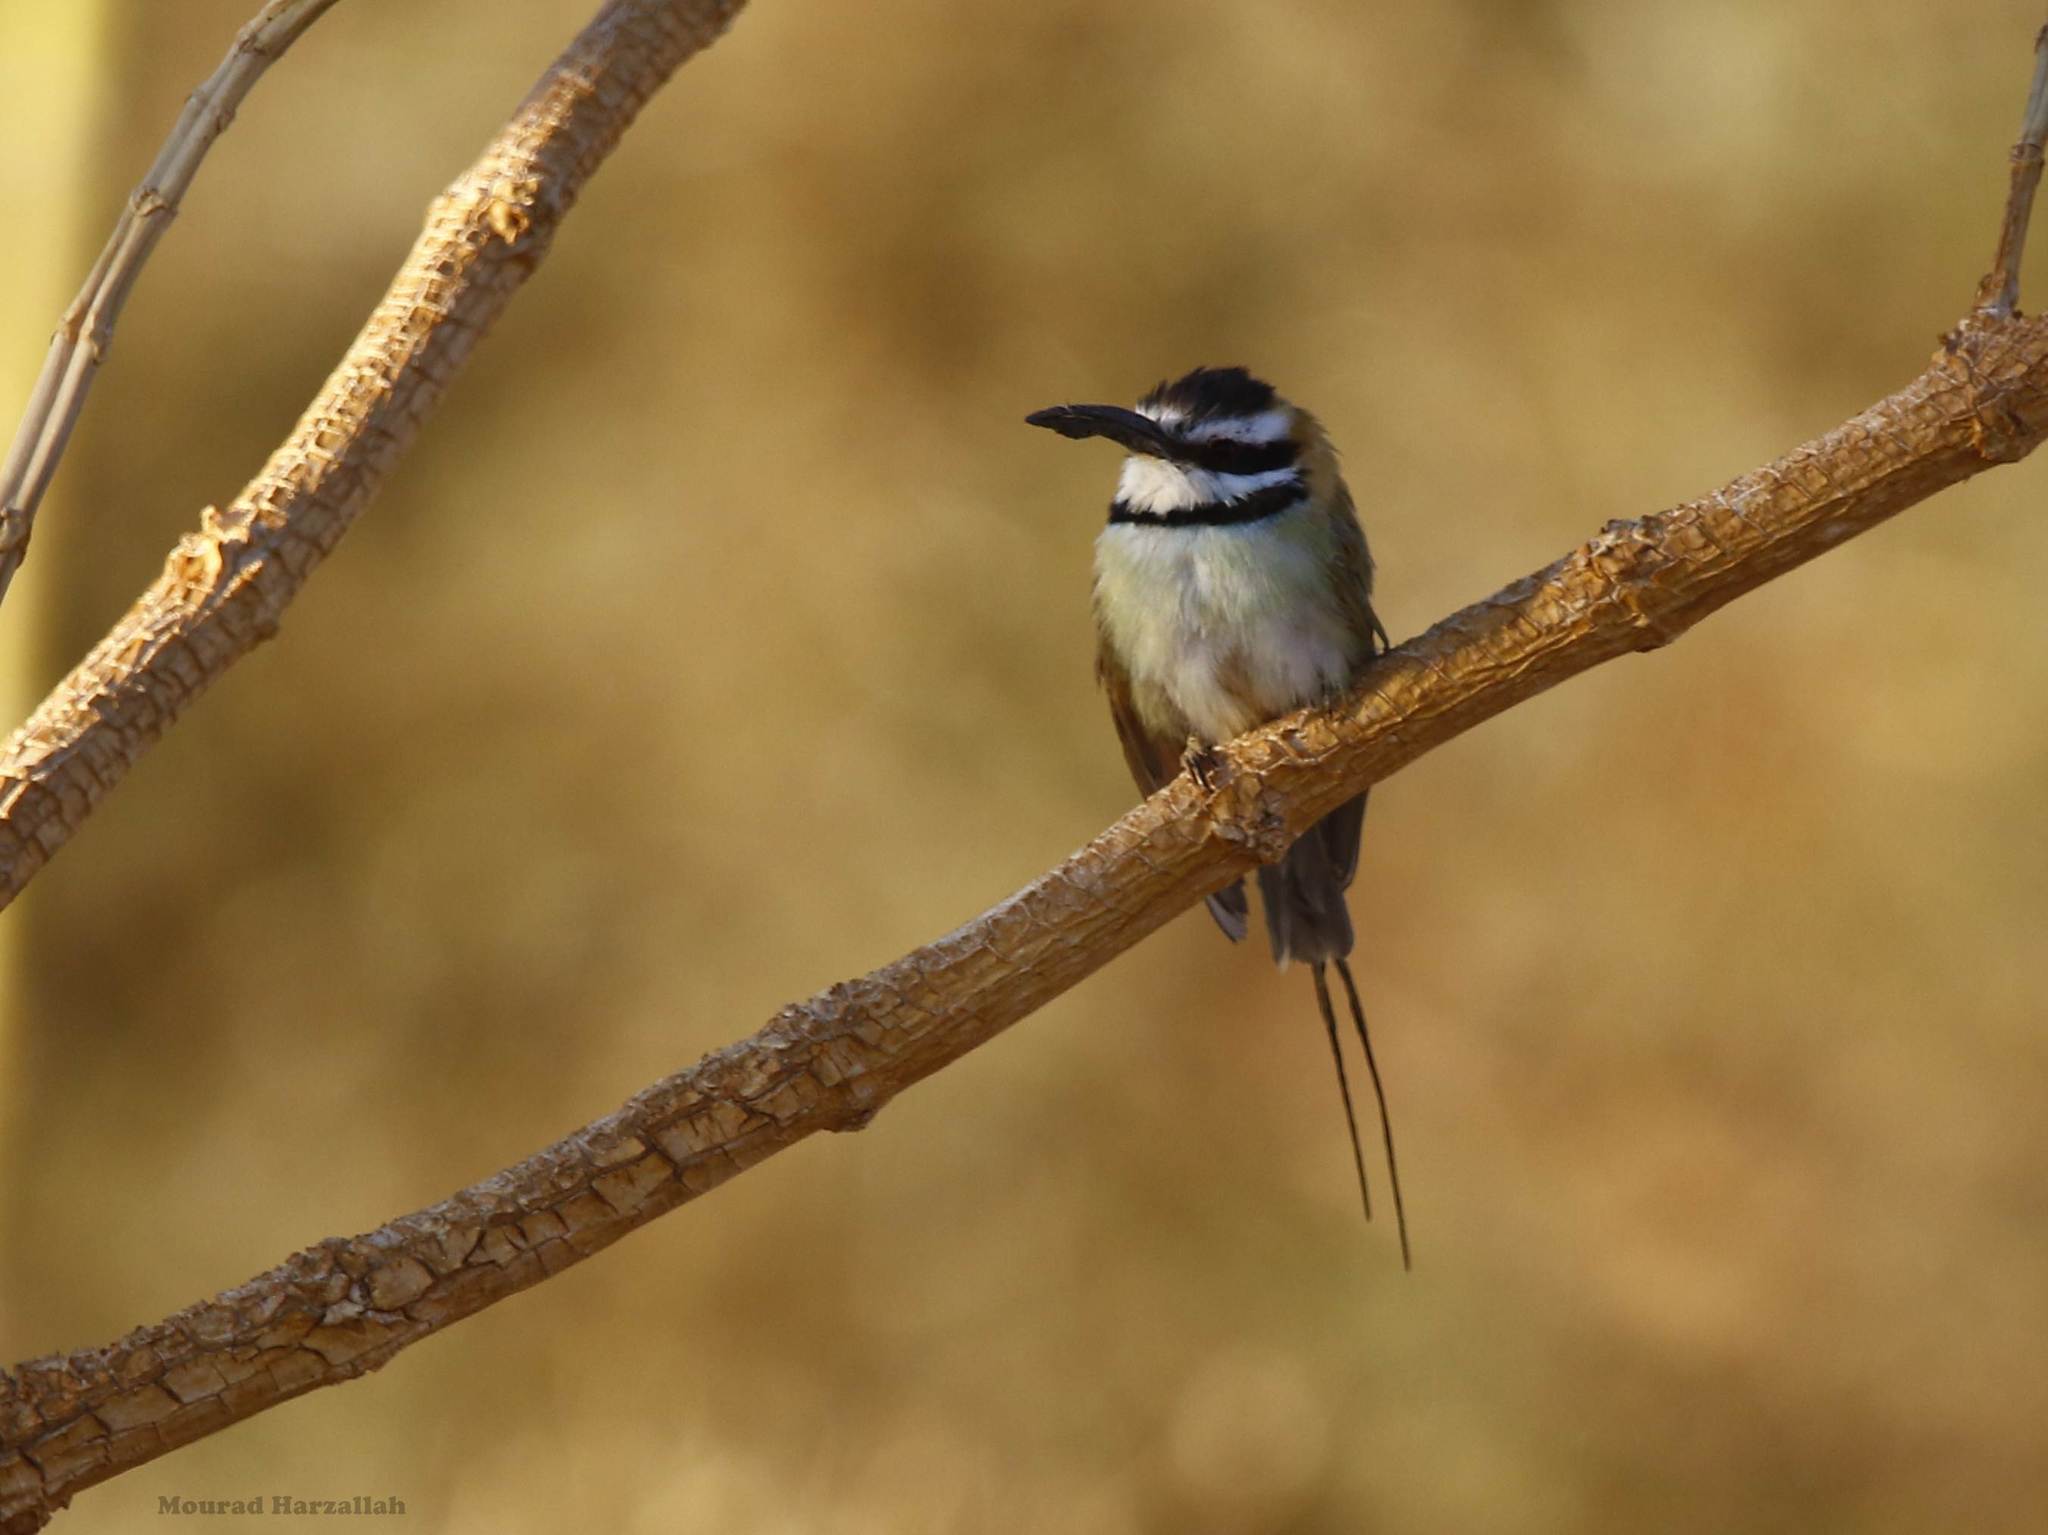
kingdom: Animalia
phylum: Chordata
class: Aves
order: Coraciiformes
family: Meropidae
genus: Merops
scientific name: Merops albicollis
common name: White-throated bee-eater
